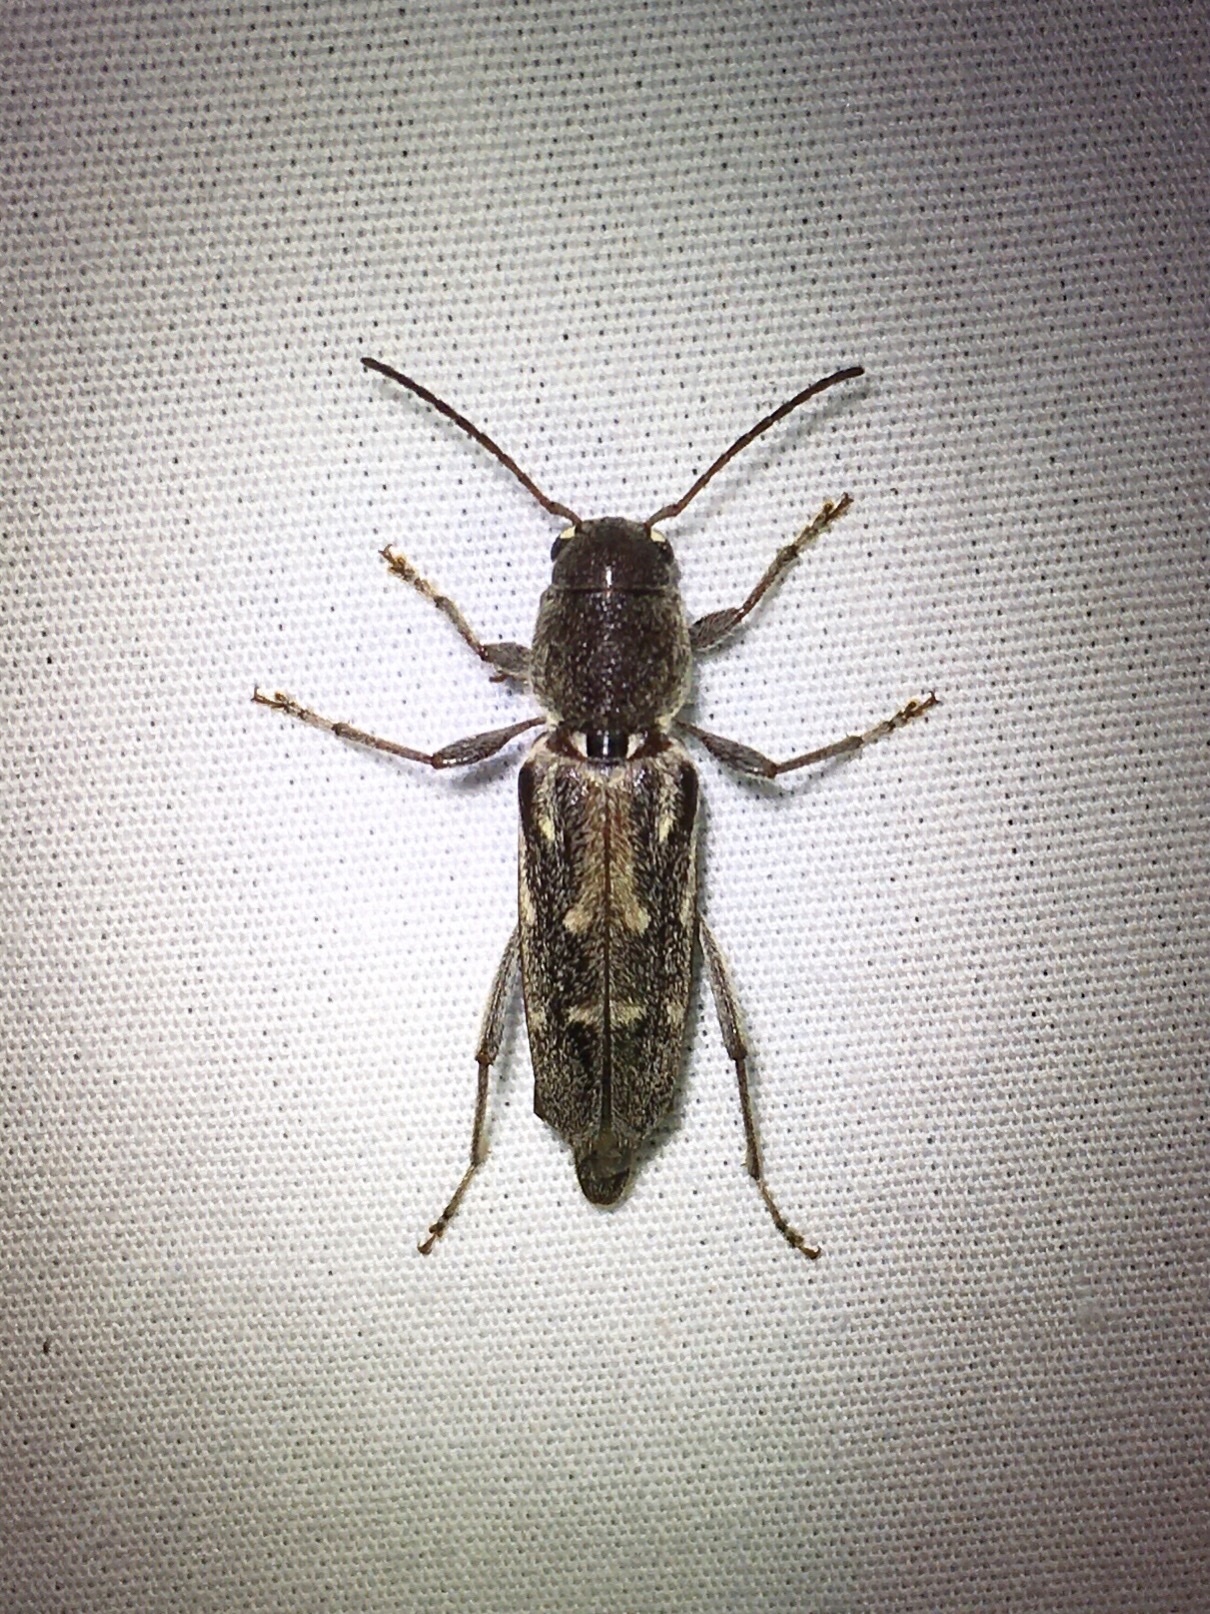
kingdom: Animalia
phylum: Arthropoda
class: Insecta
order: Coleoptera
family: Cerambycidae
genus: Xylotrechus
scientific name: Xylotrechus sagittatus
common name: Arrowhead borer
